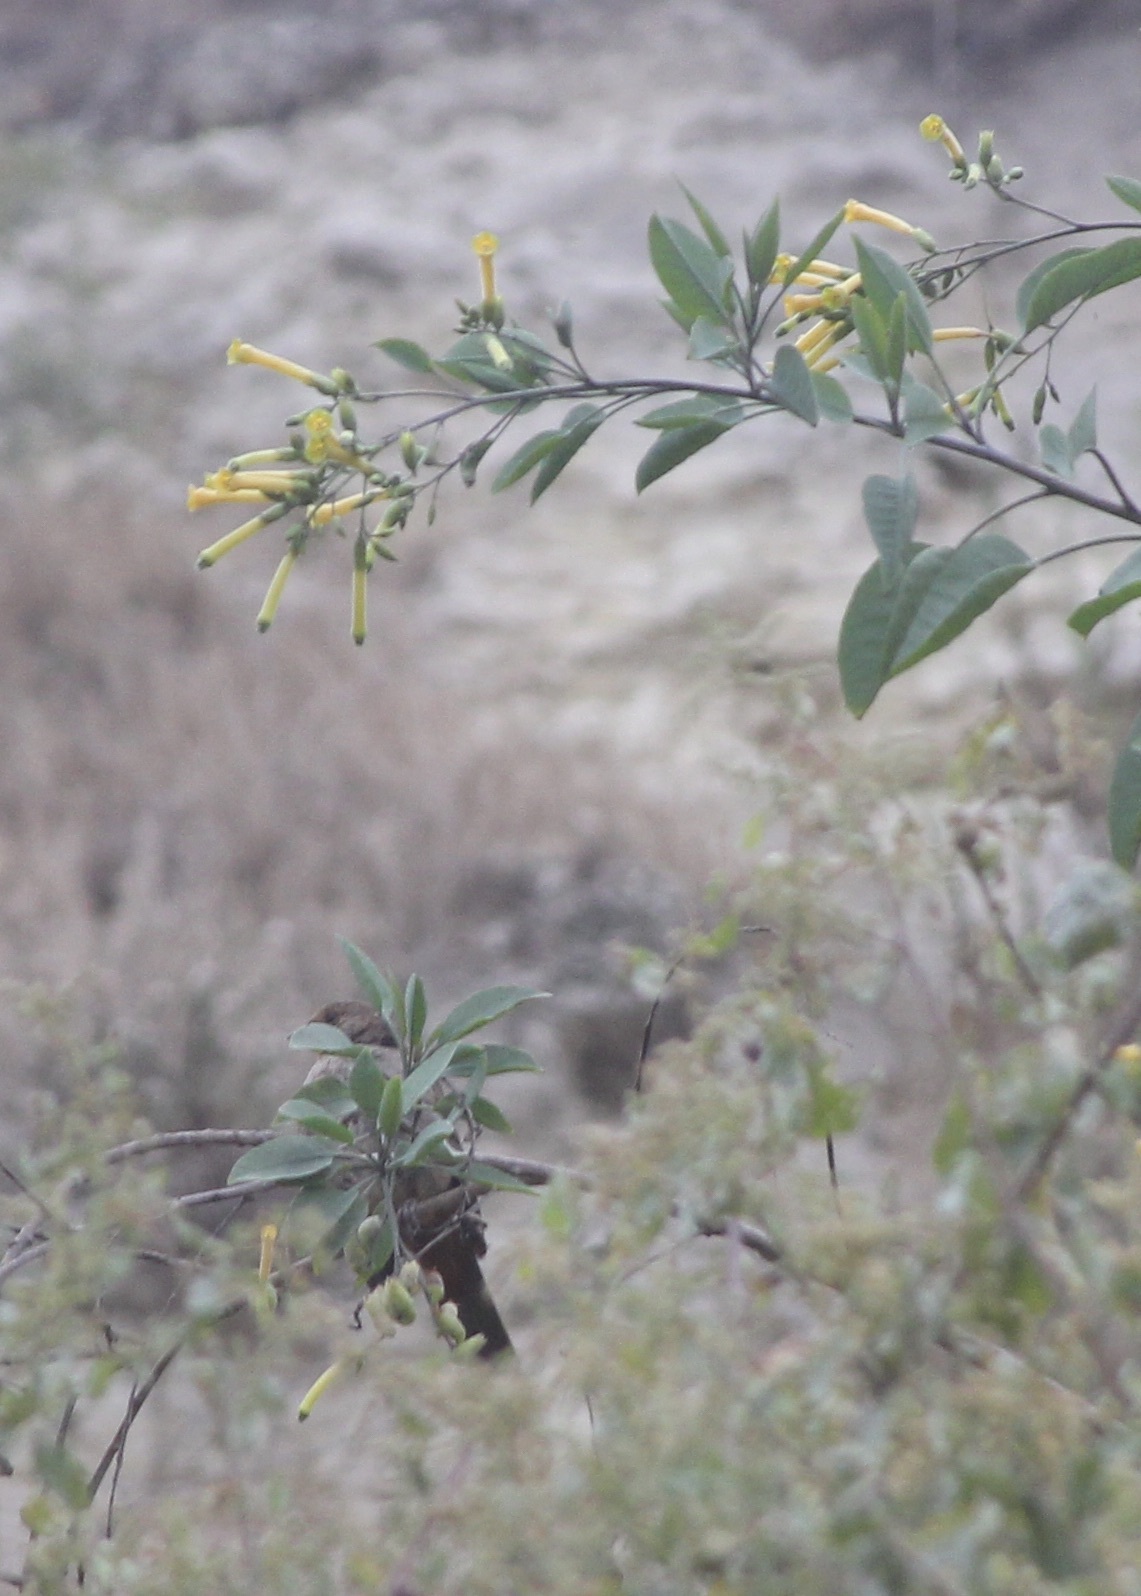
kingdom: Animalia
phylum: Chordata
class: Aves
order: Passeriformes
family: Passerellidae
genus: Melozone
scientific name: Melozone crissalis
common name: California towhee
